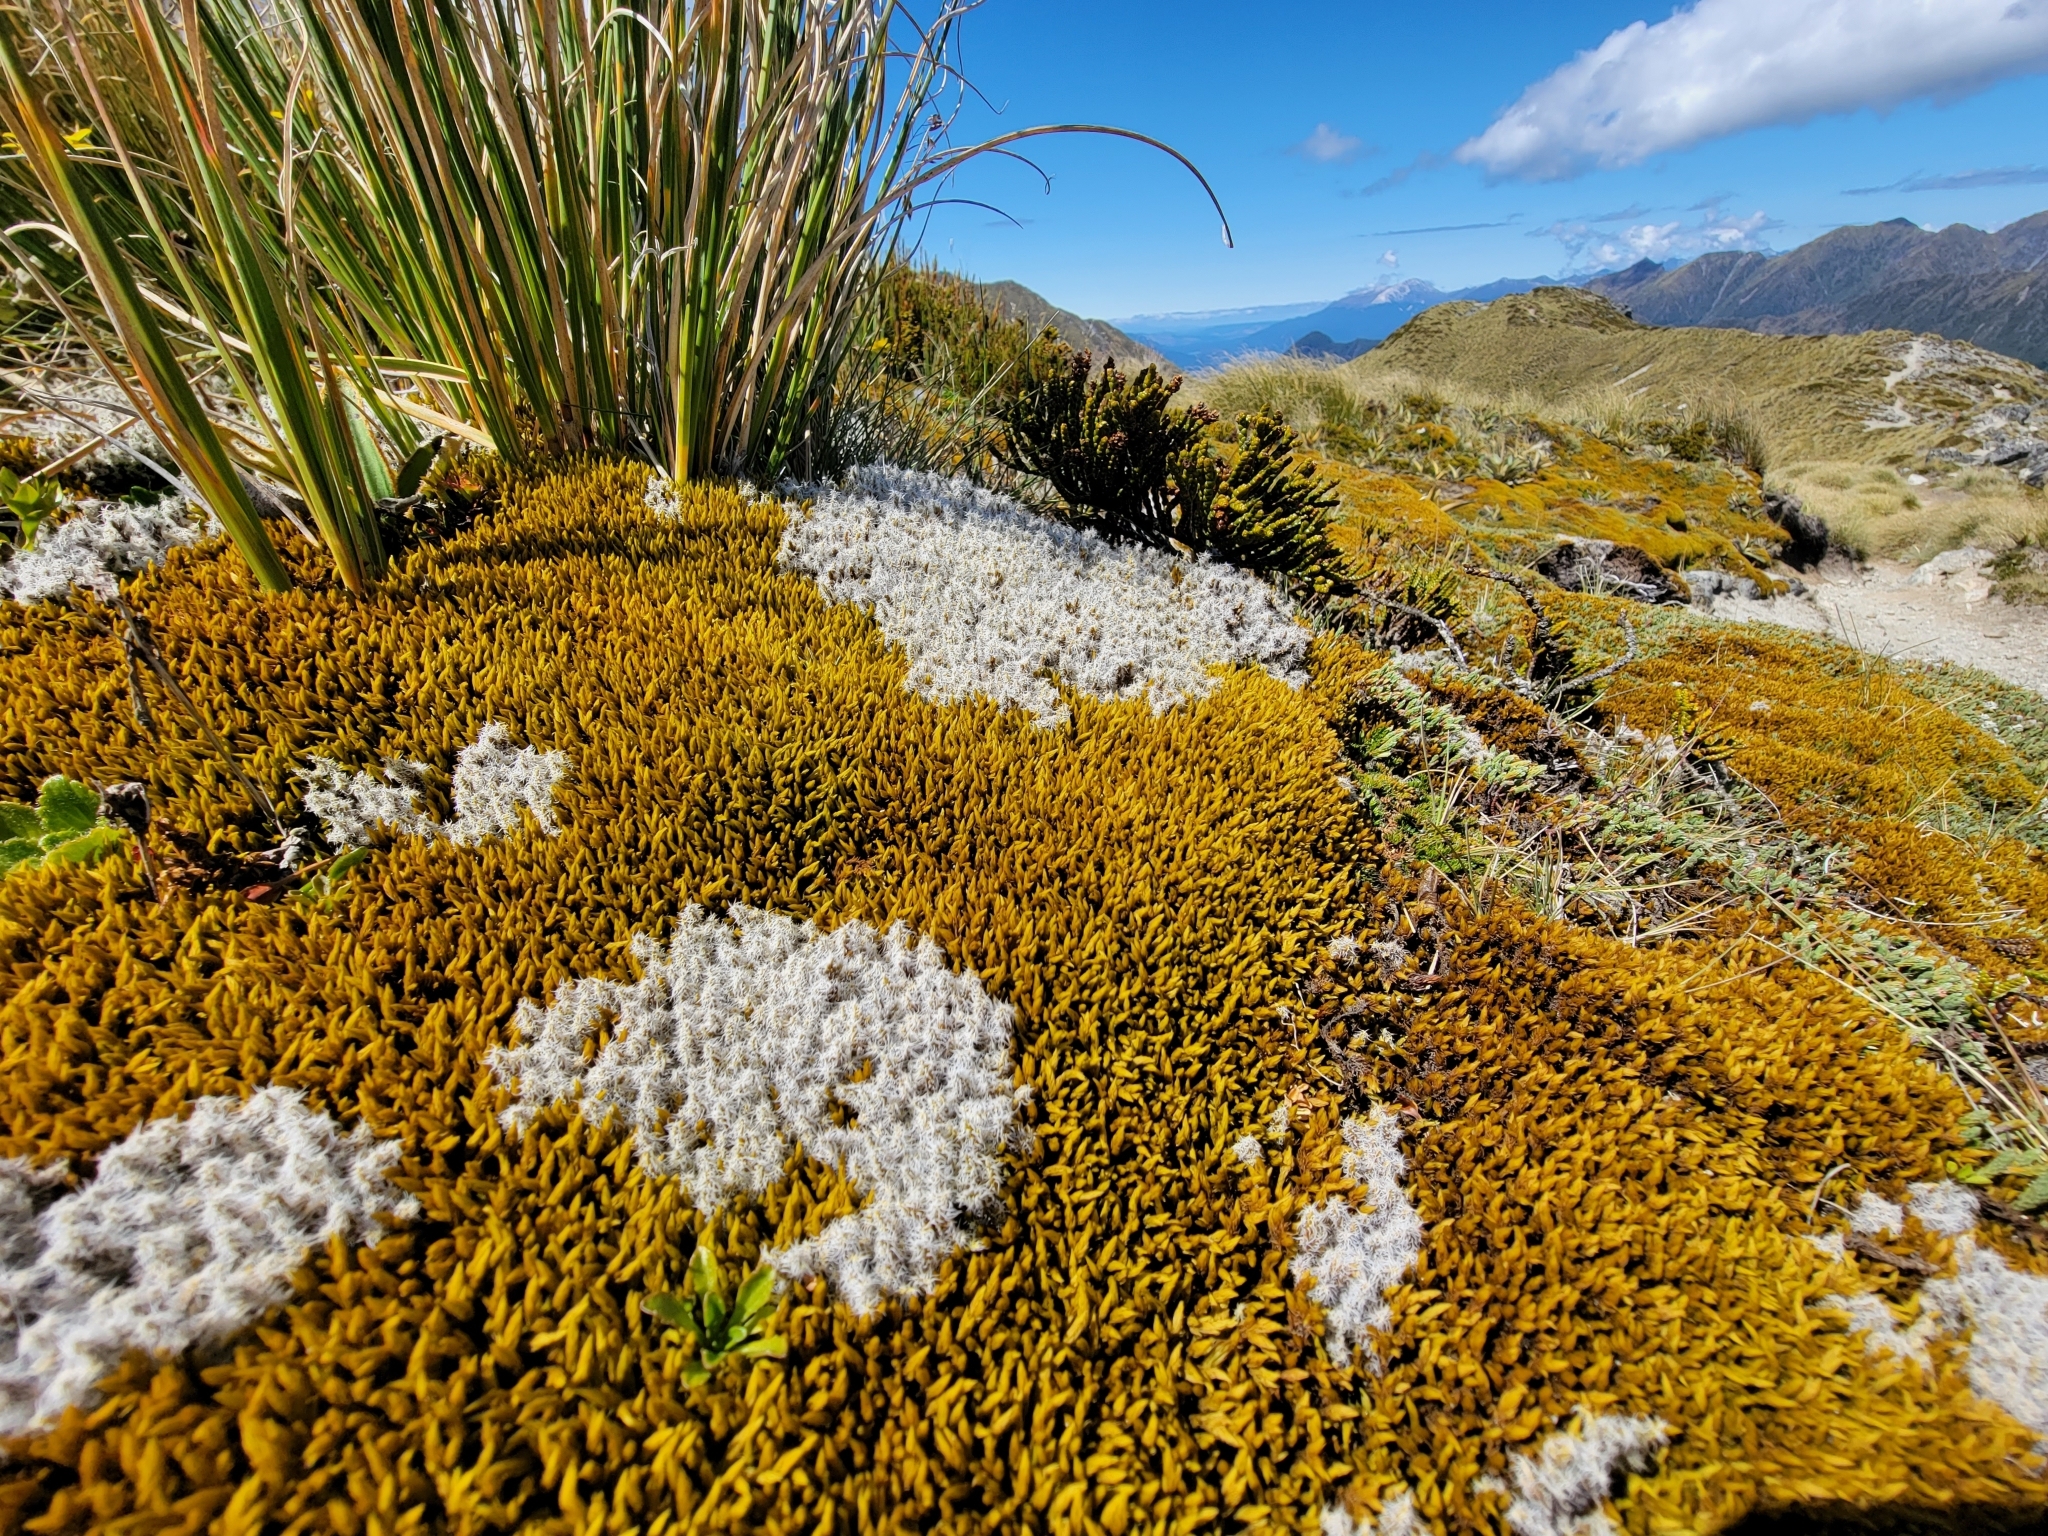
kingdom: Plantae
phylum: Bryophyta
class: Bryopsida
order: Grimmiales
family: Grimmiaceae
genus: Racomitrium
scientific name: Racomitrium lanuginosum
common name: Hoary rock moss
